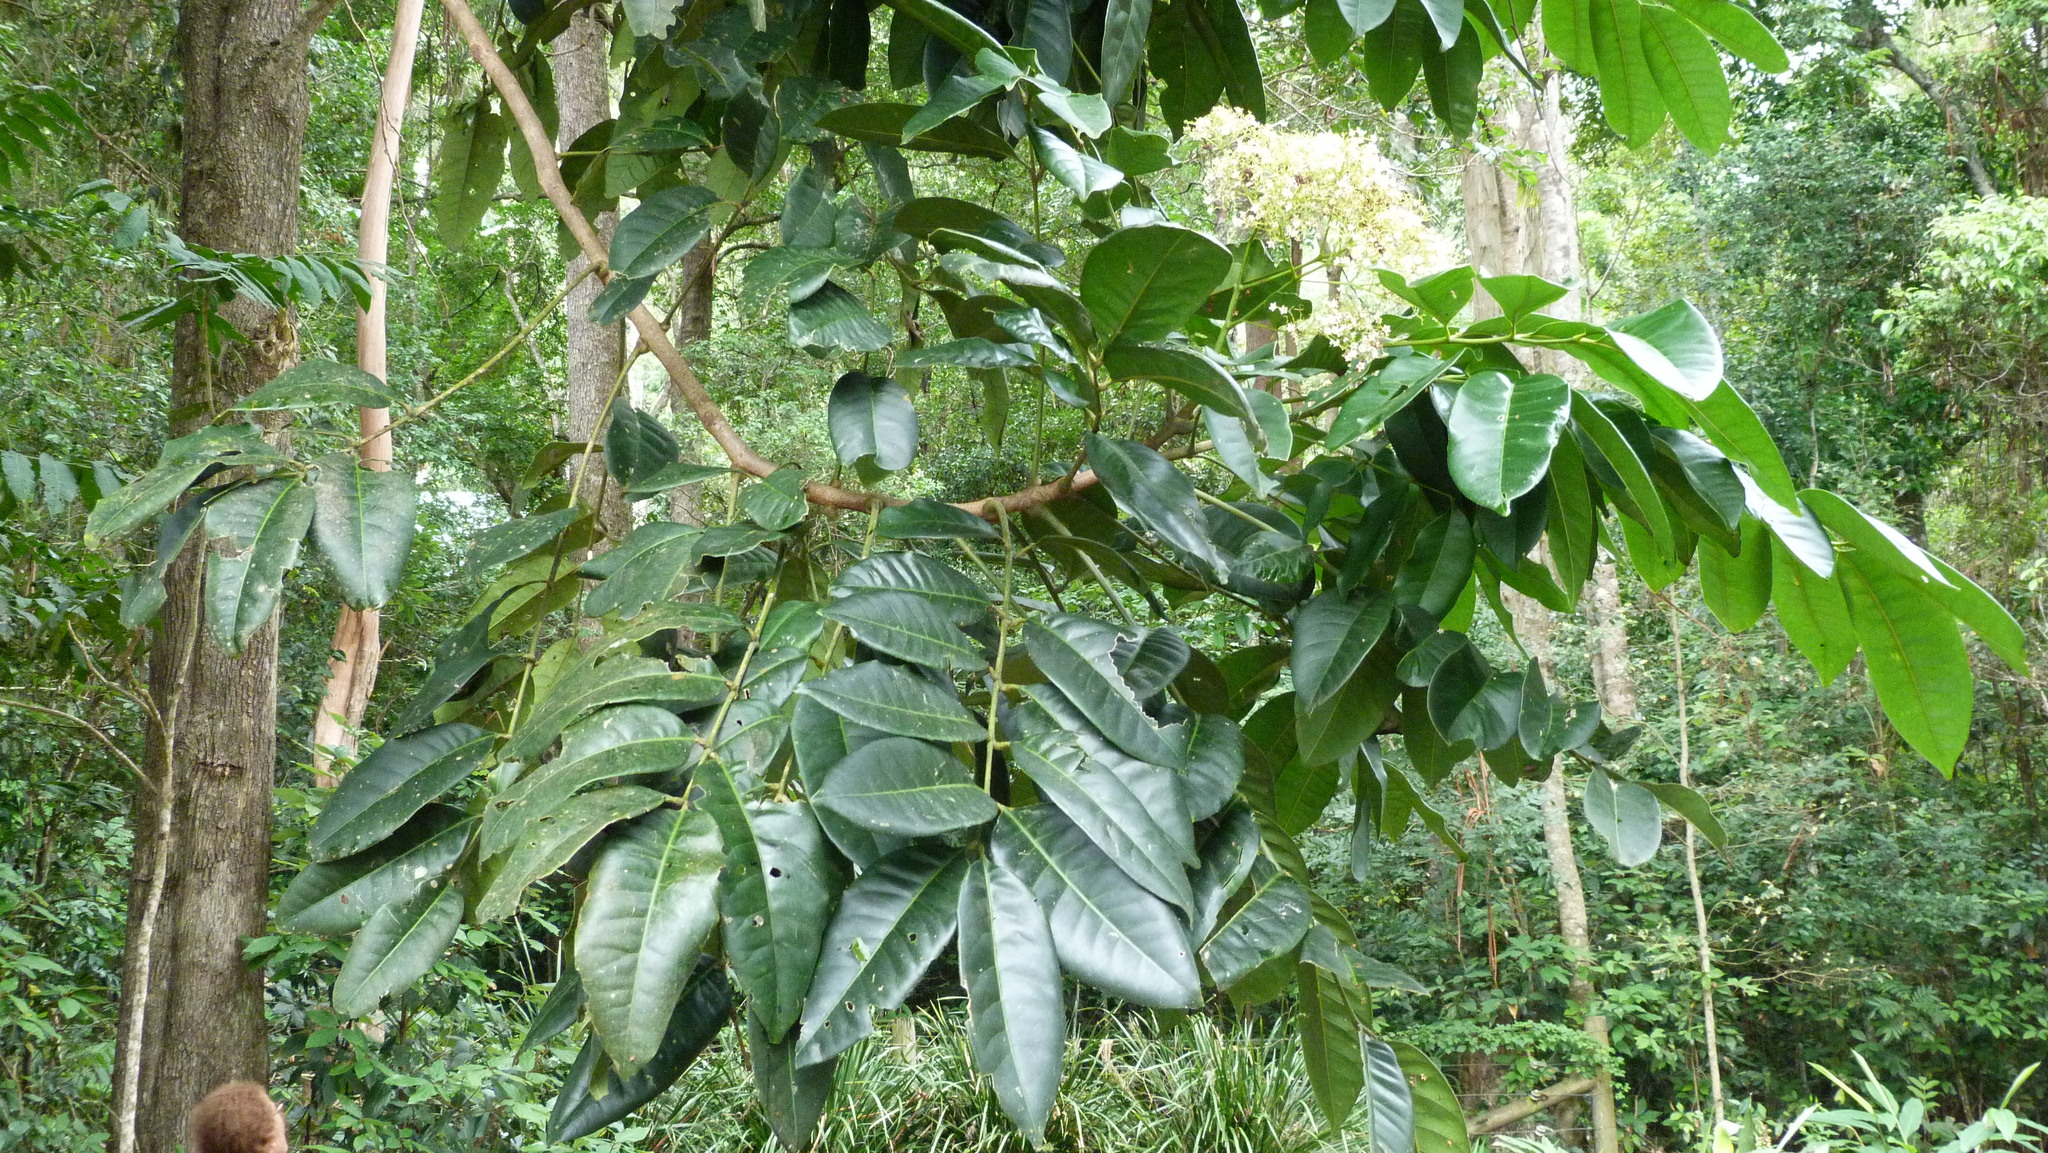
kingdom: Plantae
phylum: Tracheophyta
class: Magnoliopsida
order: Fabales
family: Fabaceae
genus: Castanospermum
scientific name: Castanospermum australe
